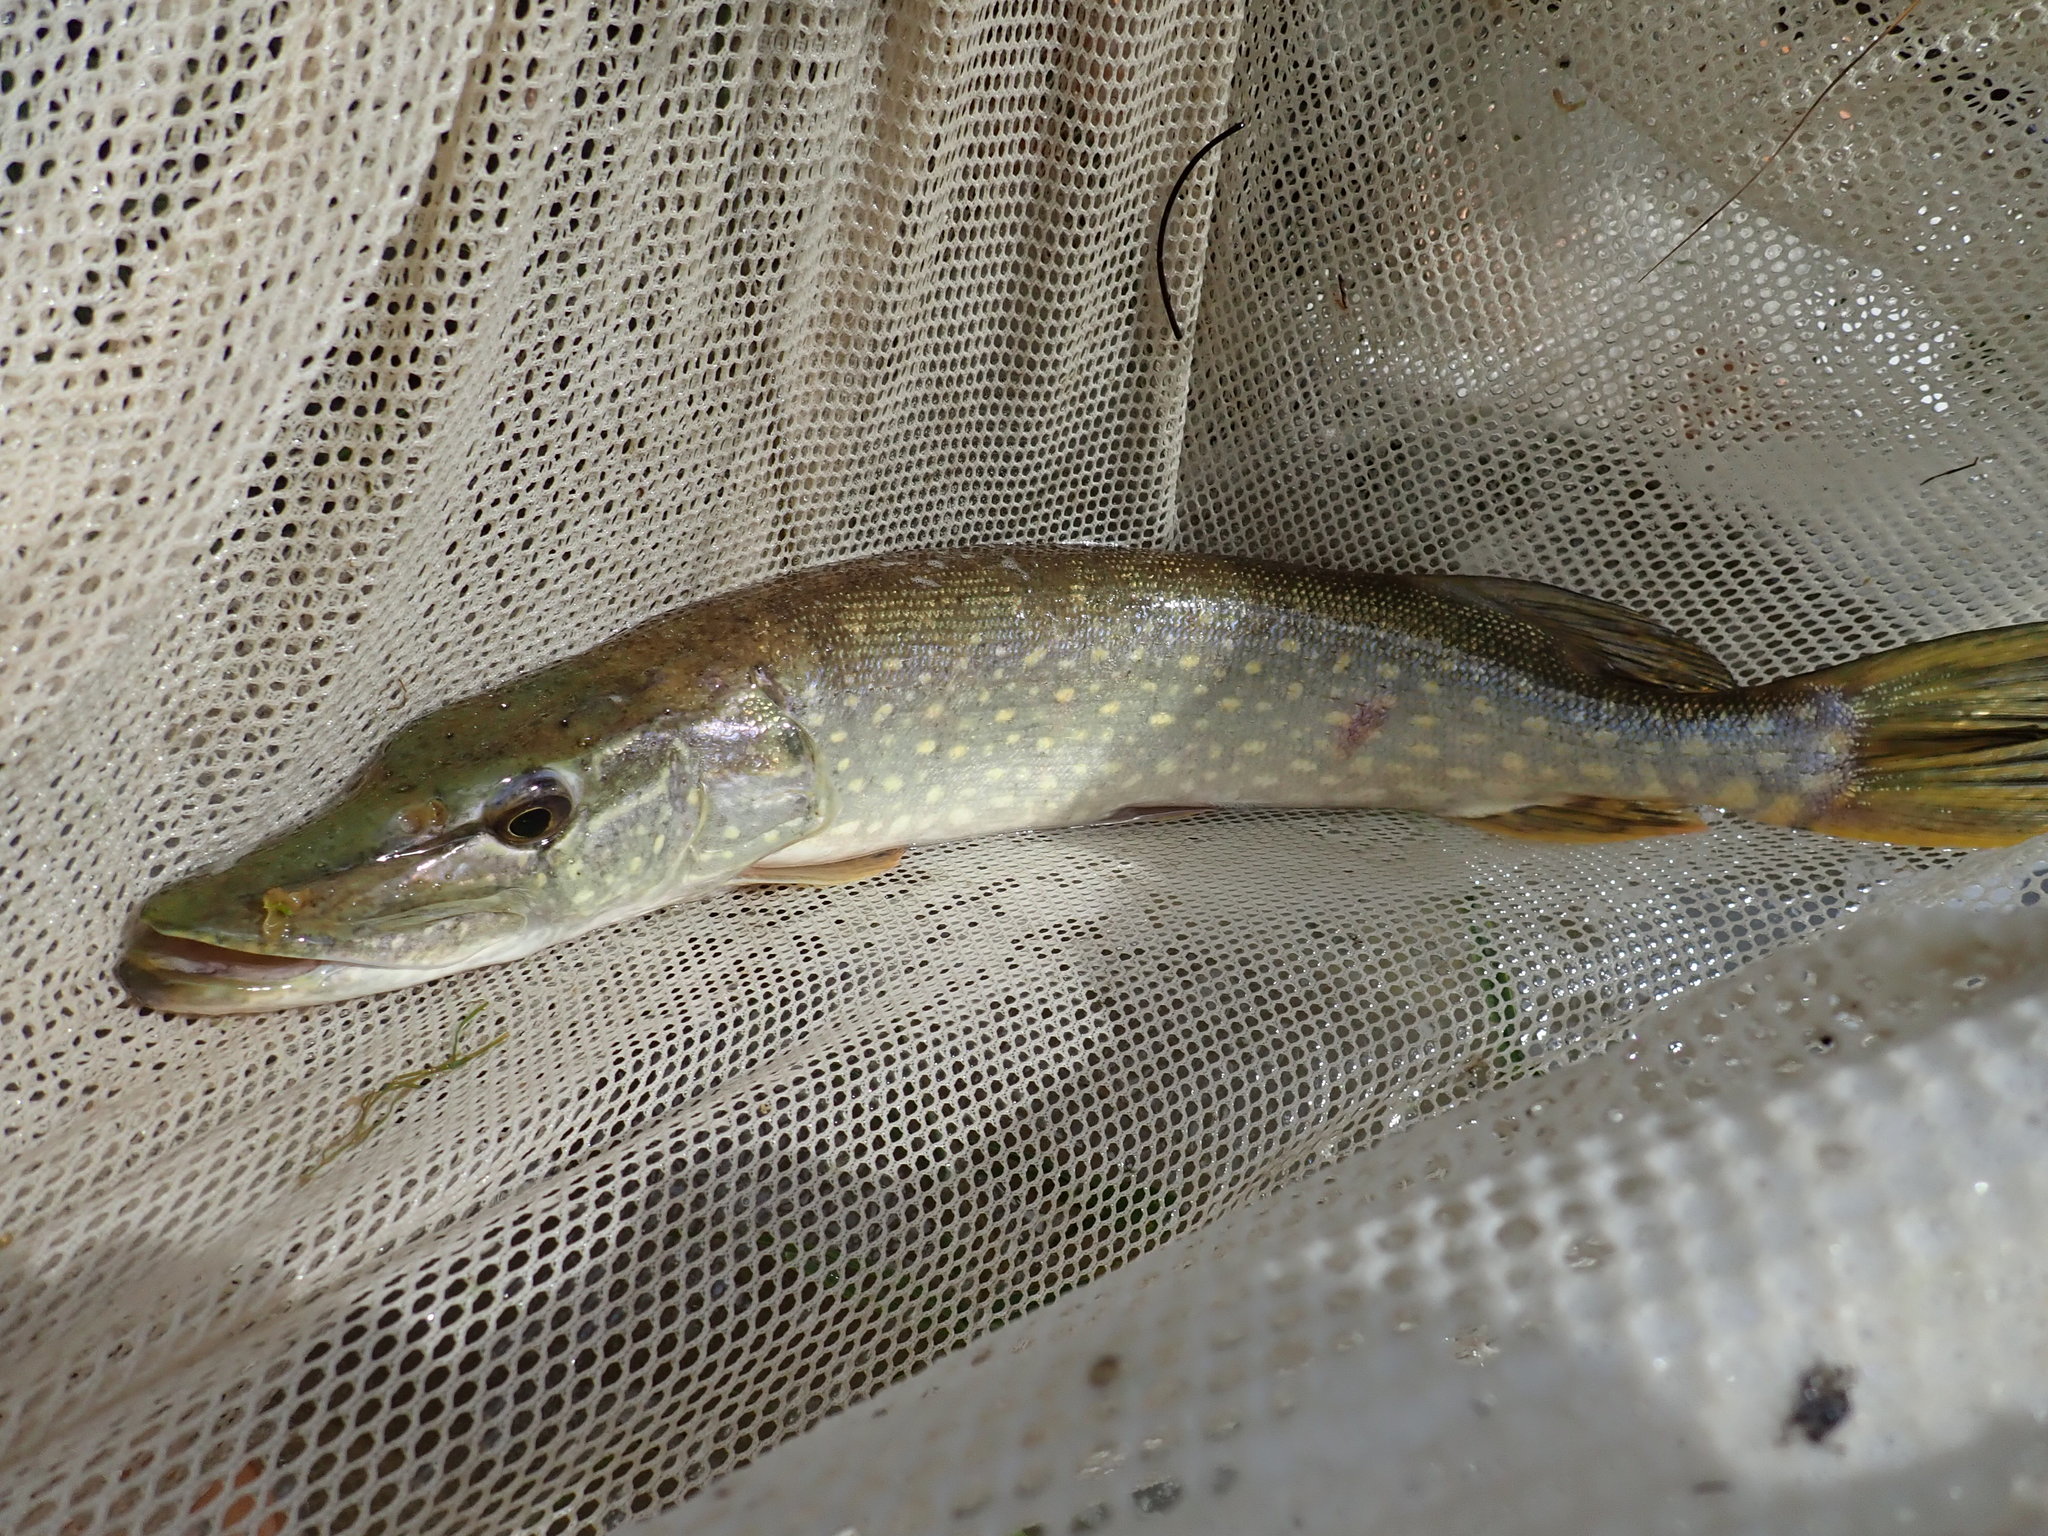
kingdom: Animalia
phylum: Chordata
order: Esociformes
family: Esocidae
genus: Esox
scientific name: Esox lucius
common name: Northern pike
